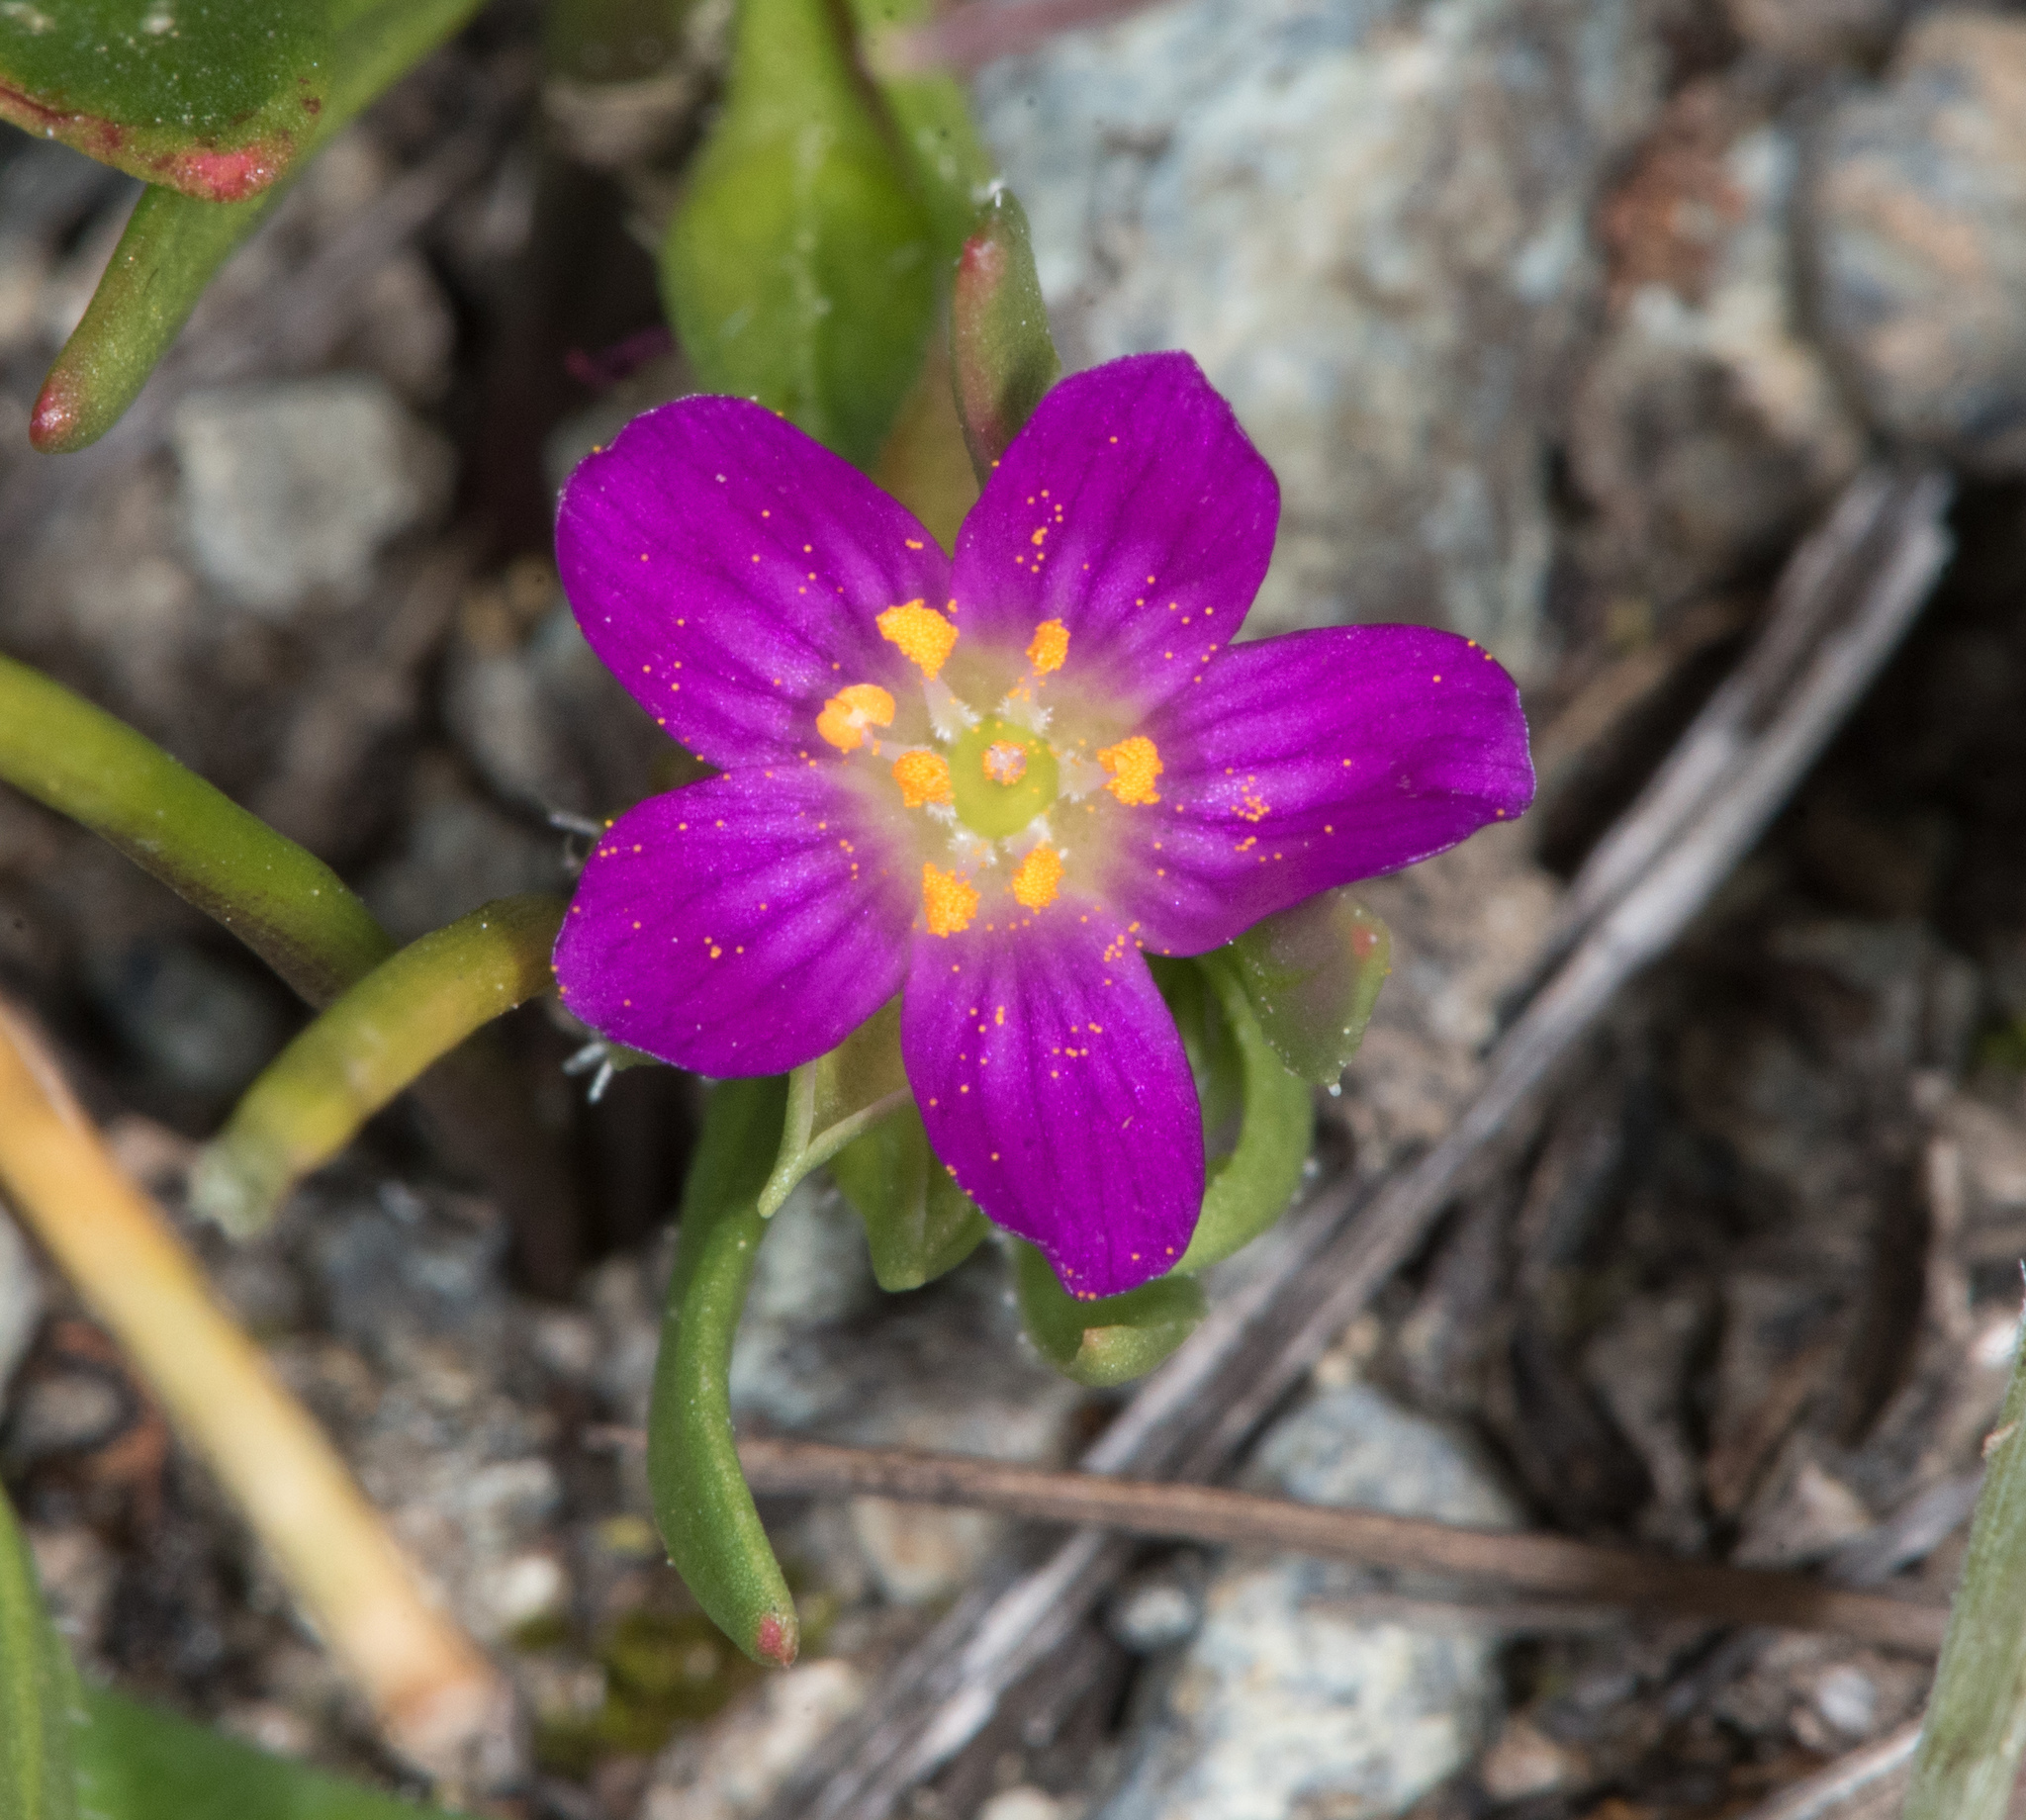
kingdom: Plantae
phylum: Tracheophyta
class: Magnoliopsida
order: Caryophyllales
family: Montiaceae
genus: Calandrinia
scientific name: Calandrinia menziesii
